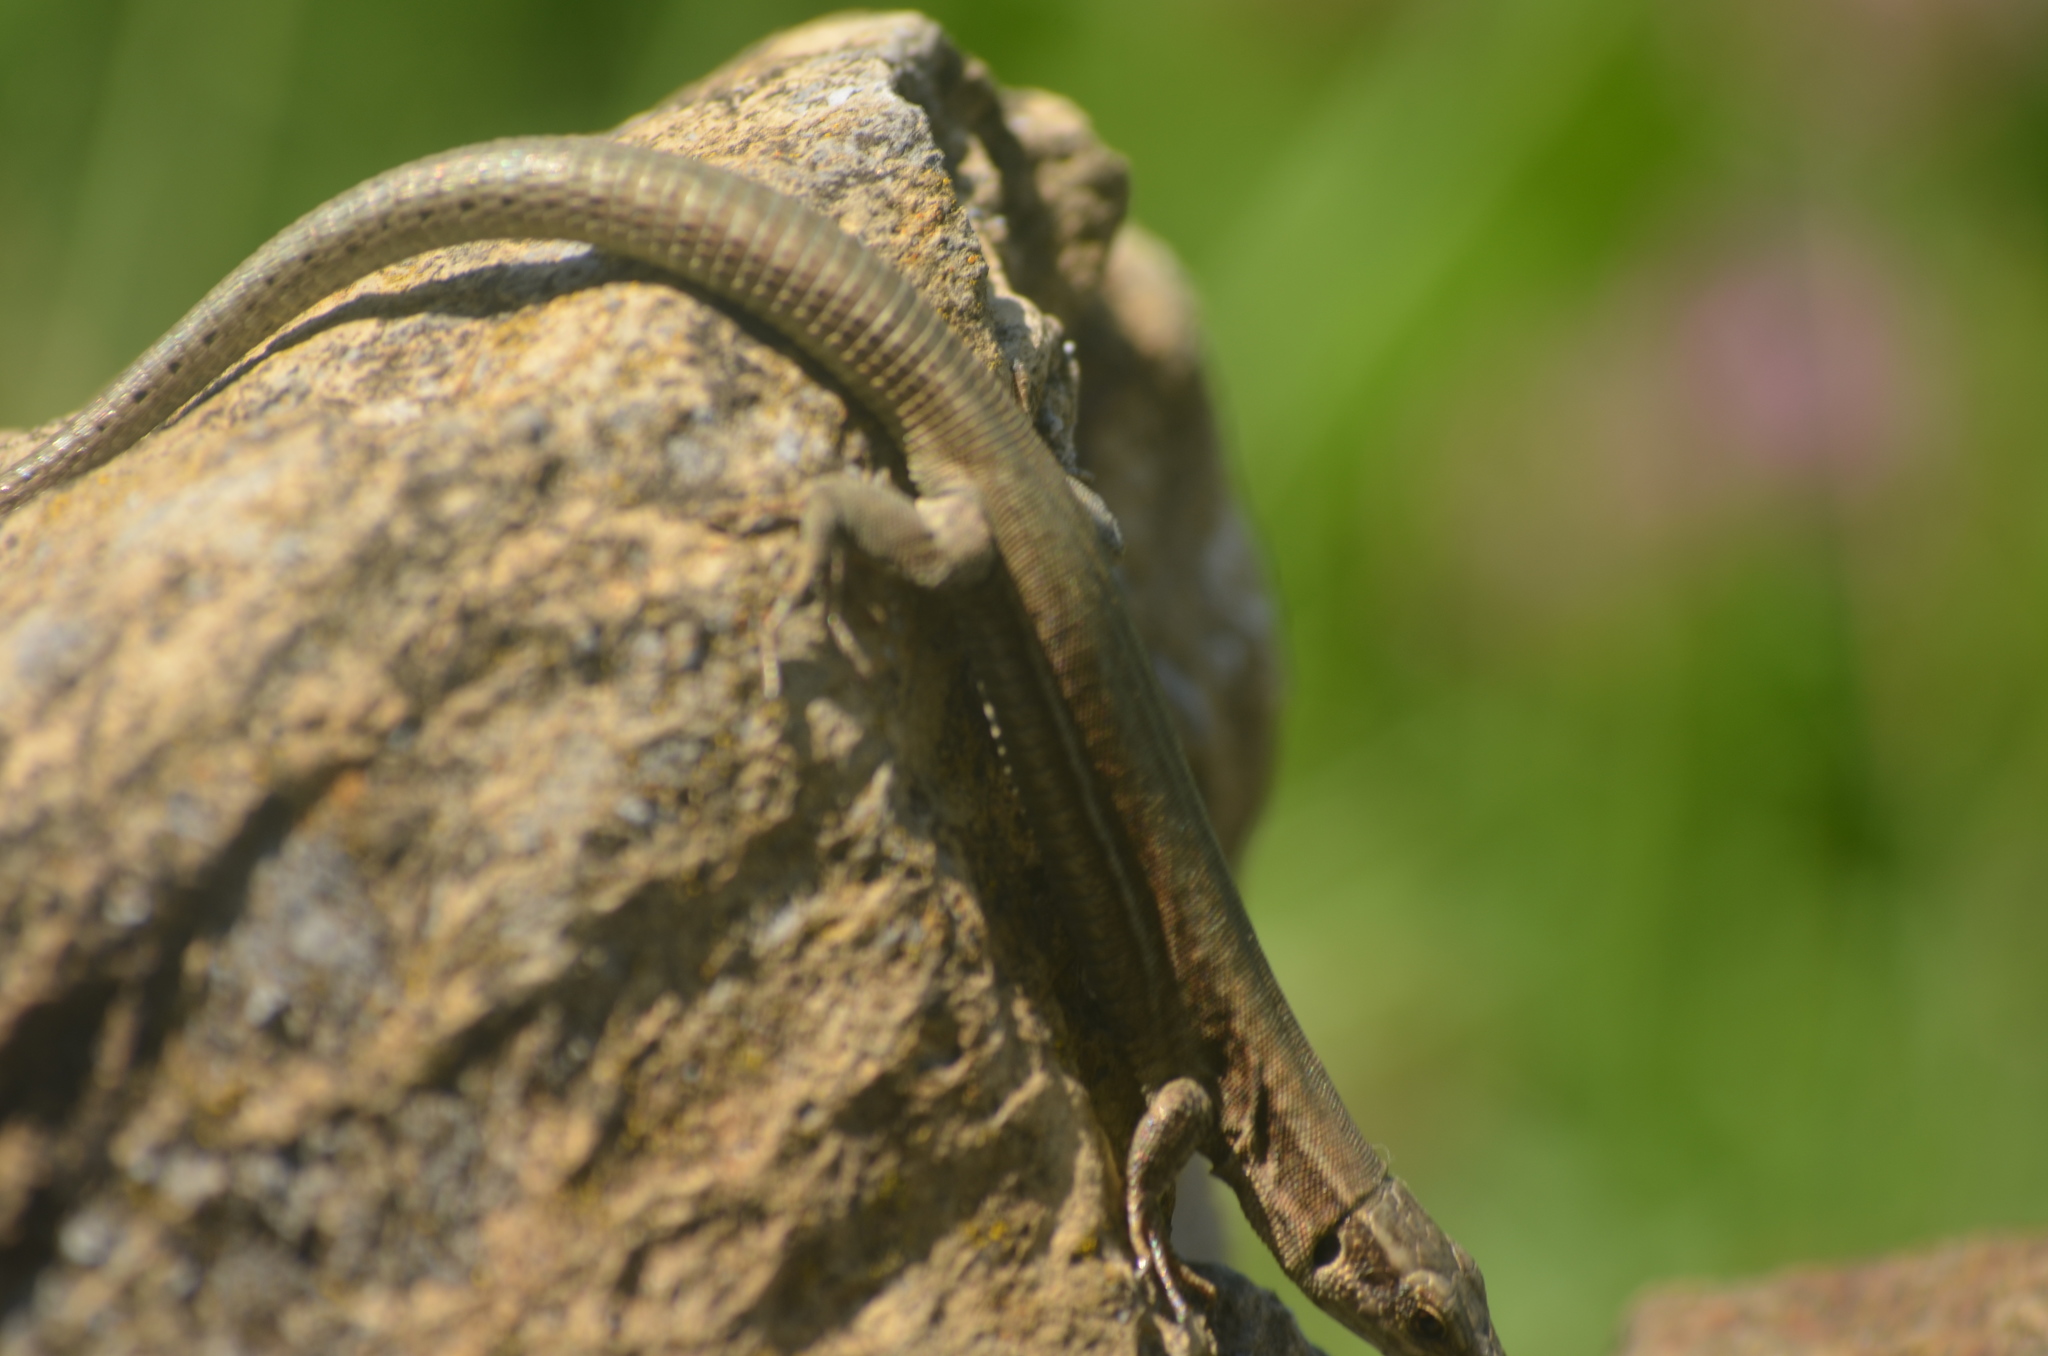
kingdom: Animalia
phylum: Chordata
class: Squamata
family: Lacertidae
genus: Podarcis
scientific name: Podarcis muralis
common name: Common wall lizard
